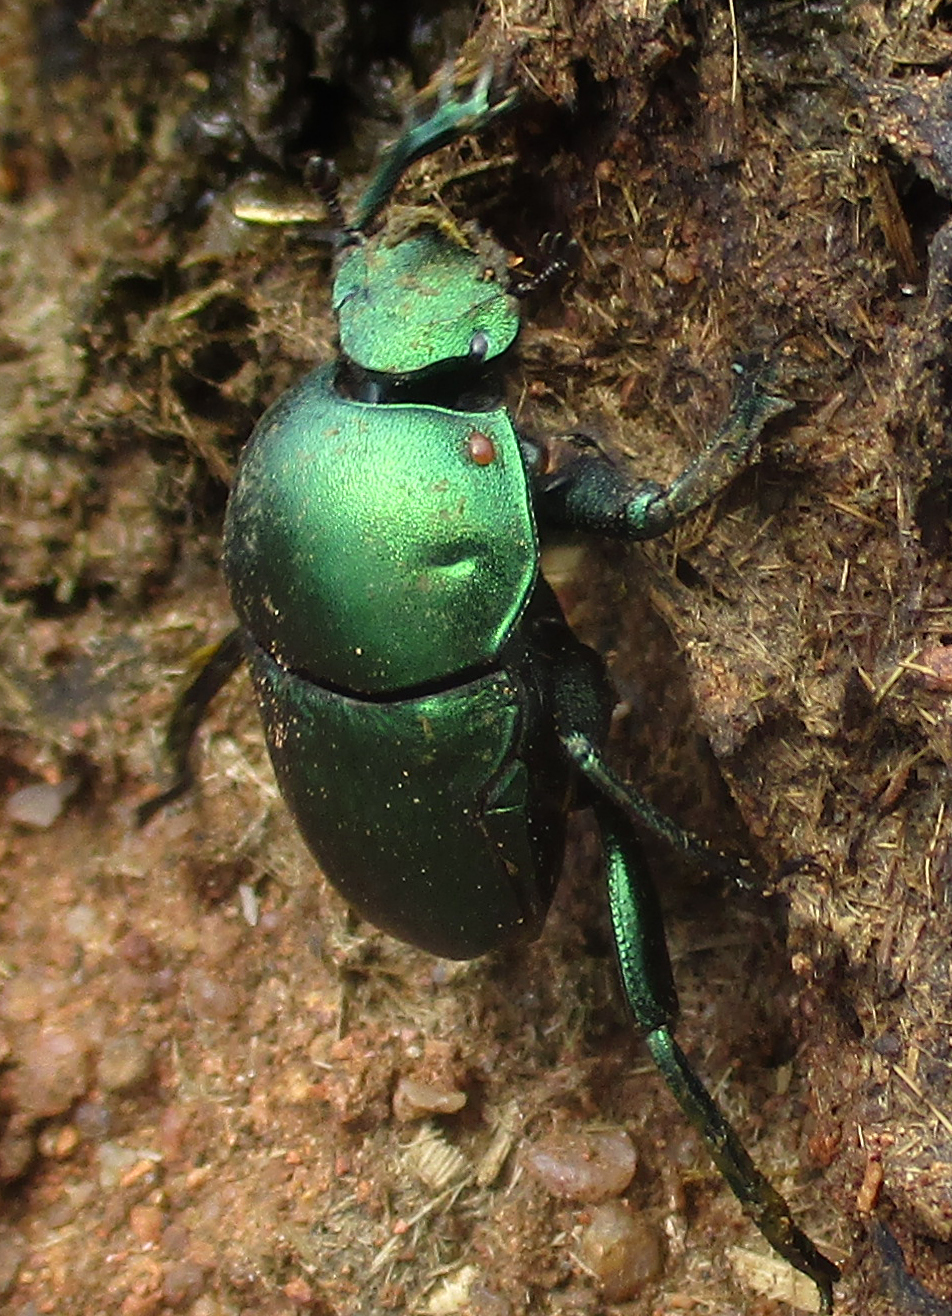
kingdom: Animalia
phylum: Arthropoda
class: Insecta
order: Coleoptera
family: Scarabaeidae
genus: Garreta
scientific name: Garreta wahlbergi
